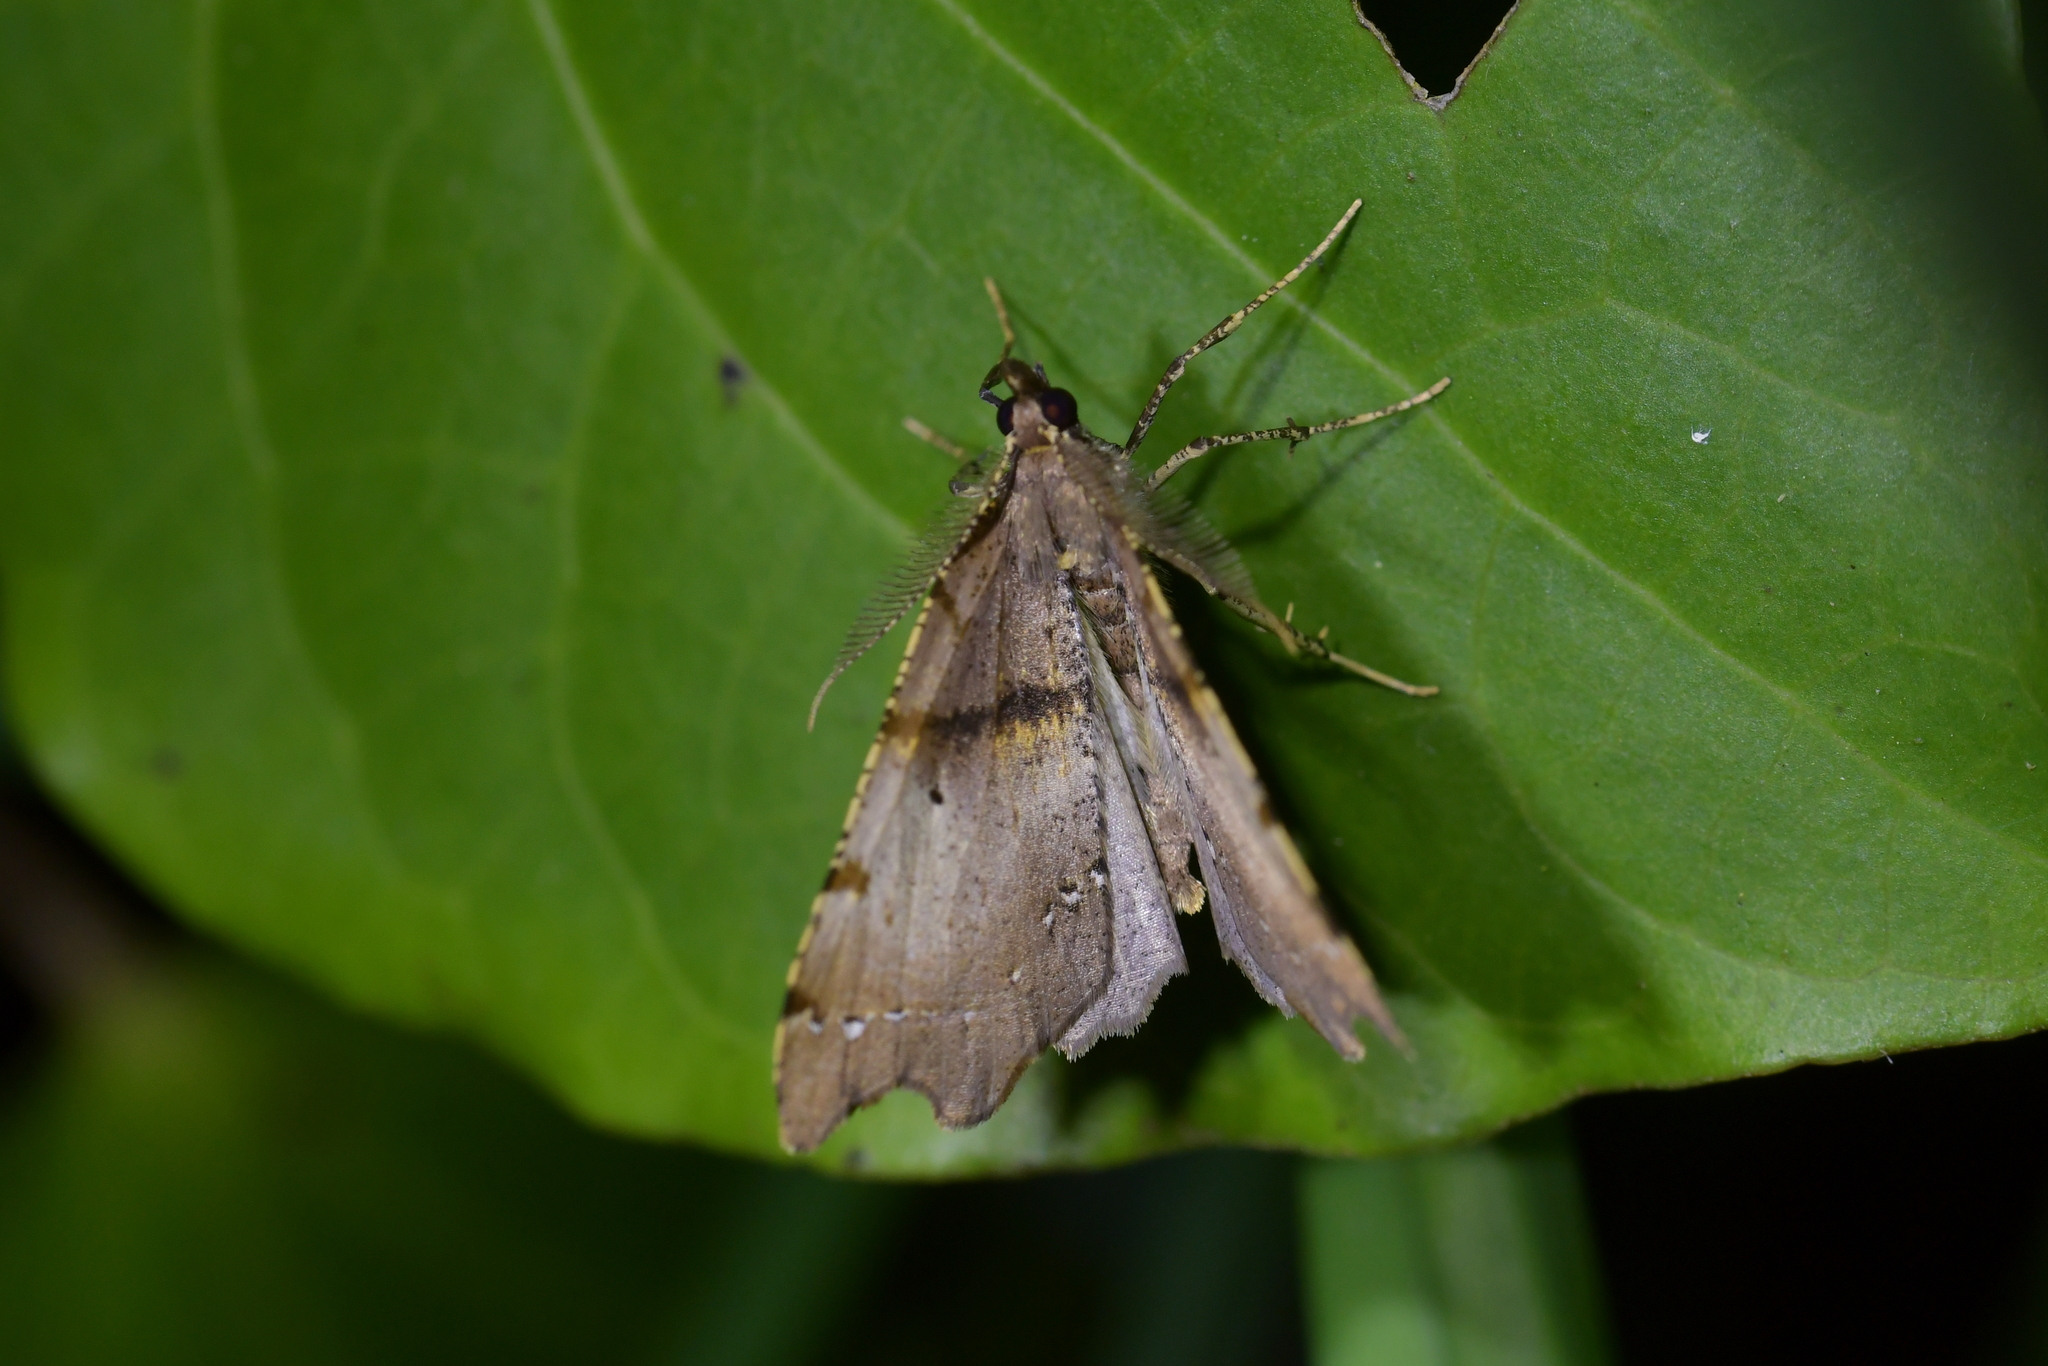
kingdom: Animalia
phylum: Arthropoda
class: Insecta
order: Lepidoptera
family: Geometridae
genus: Chalastra
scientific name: Chalastra pellurgata
